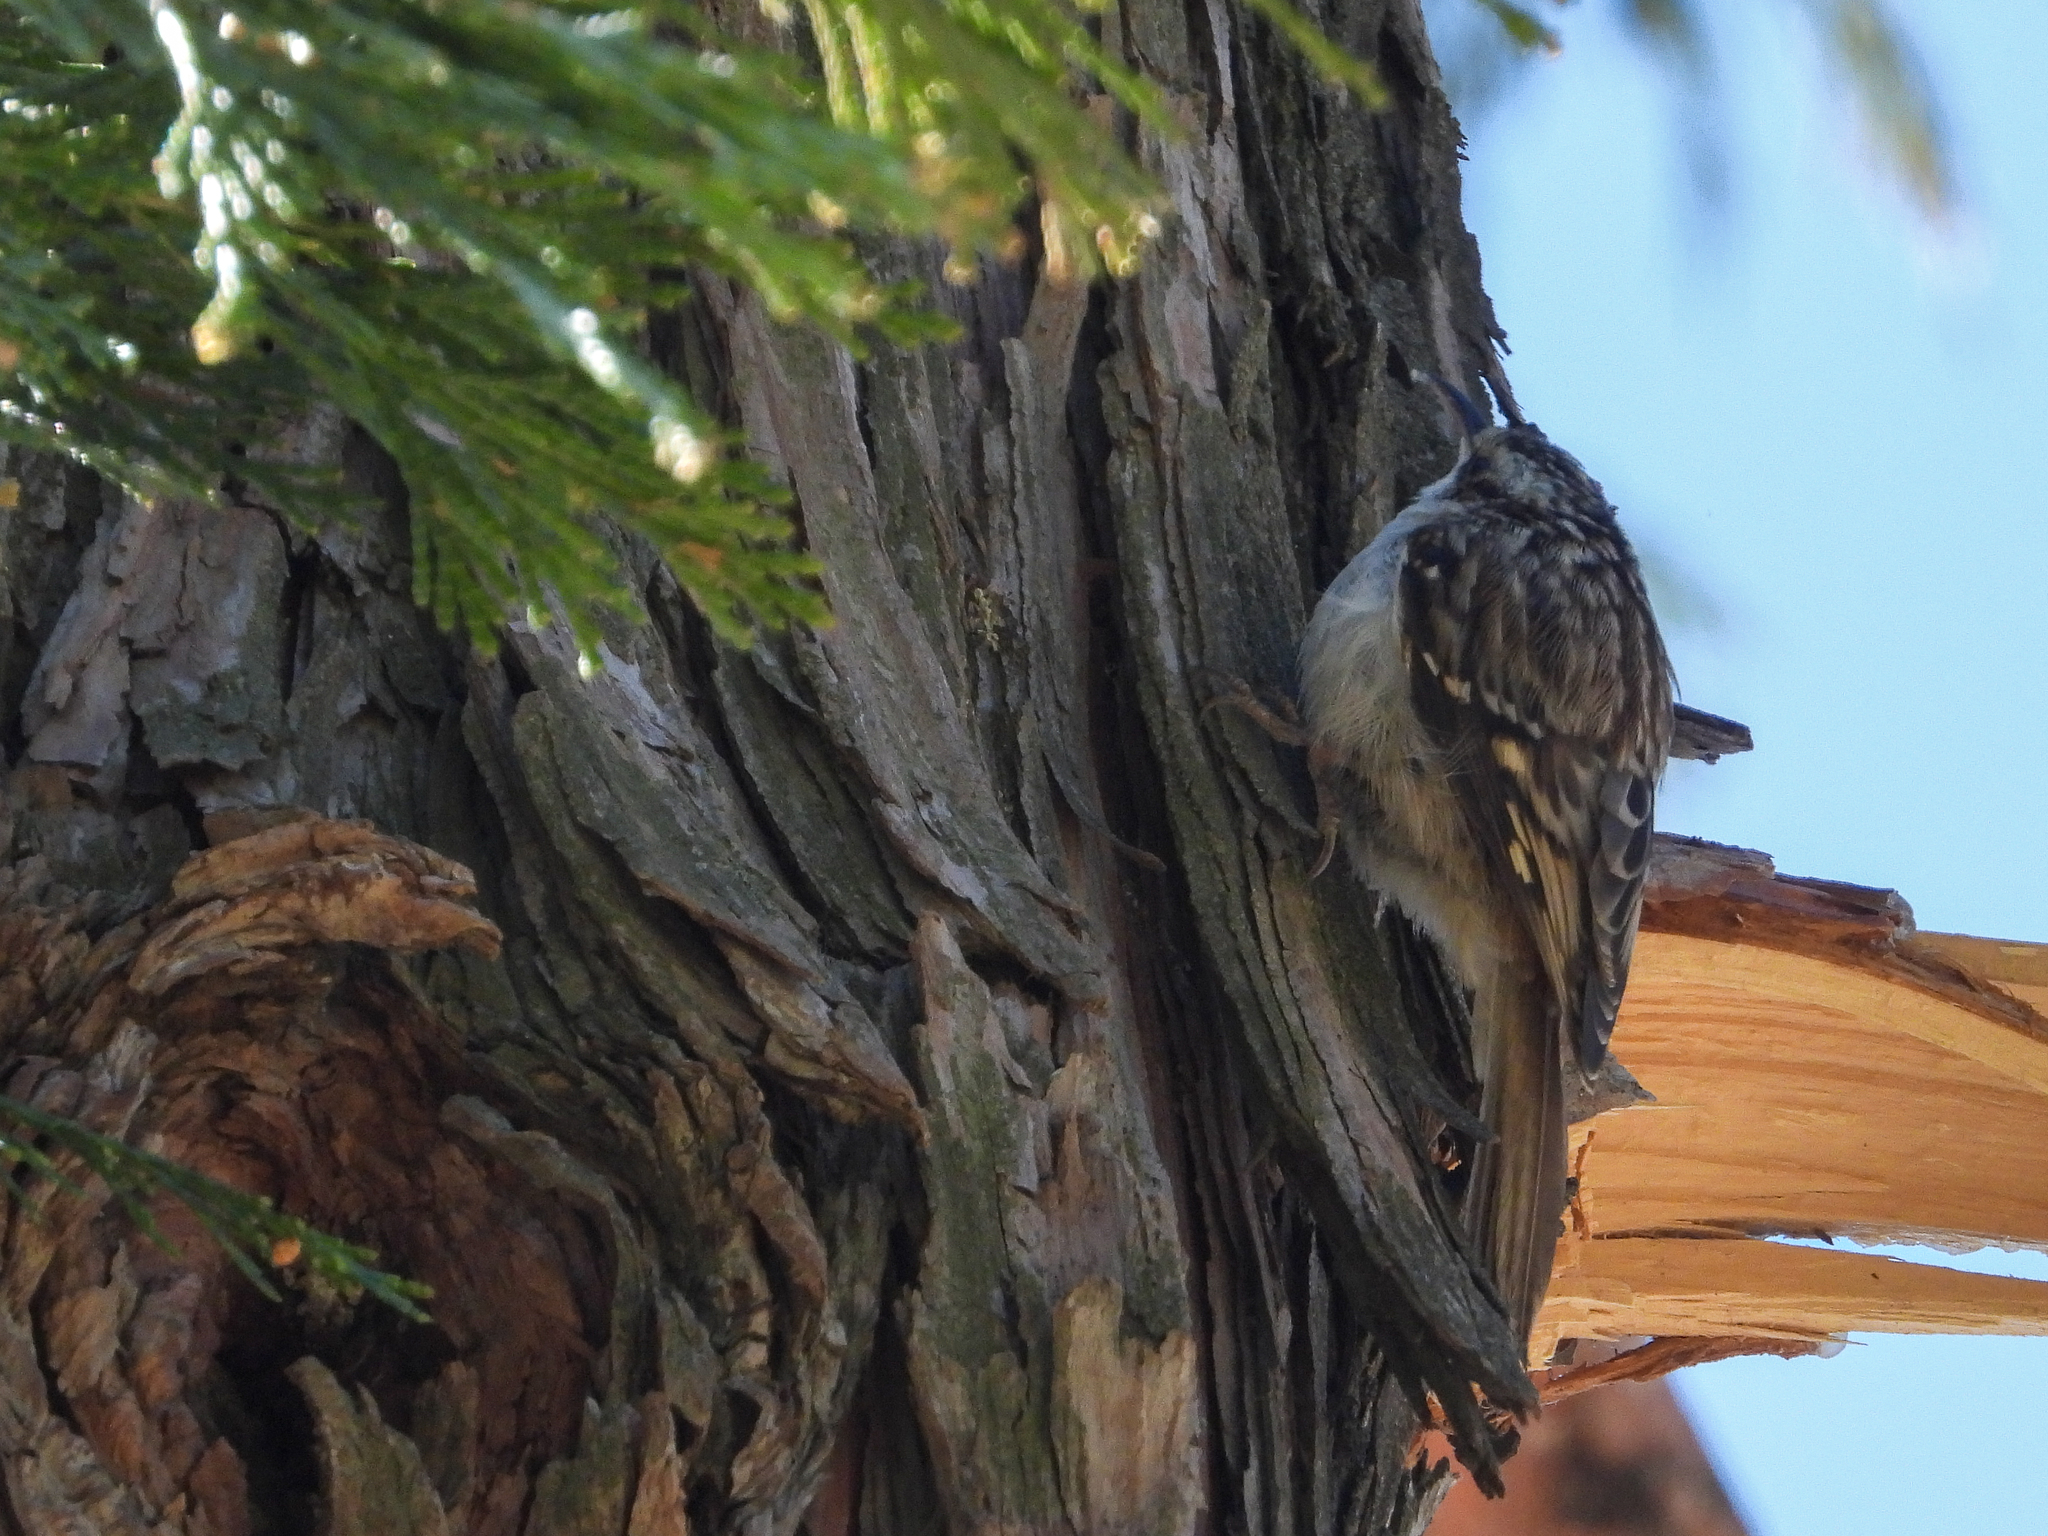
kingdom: Animalia
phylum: Chordata
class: Aves
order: Passeriformes
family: Certhiidae
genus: Certhia
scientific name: Certhia americana
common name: Brown creeper
